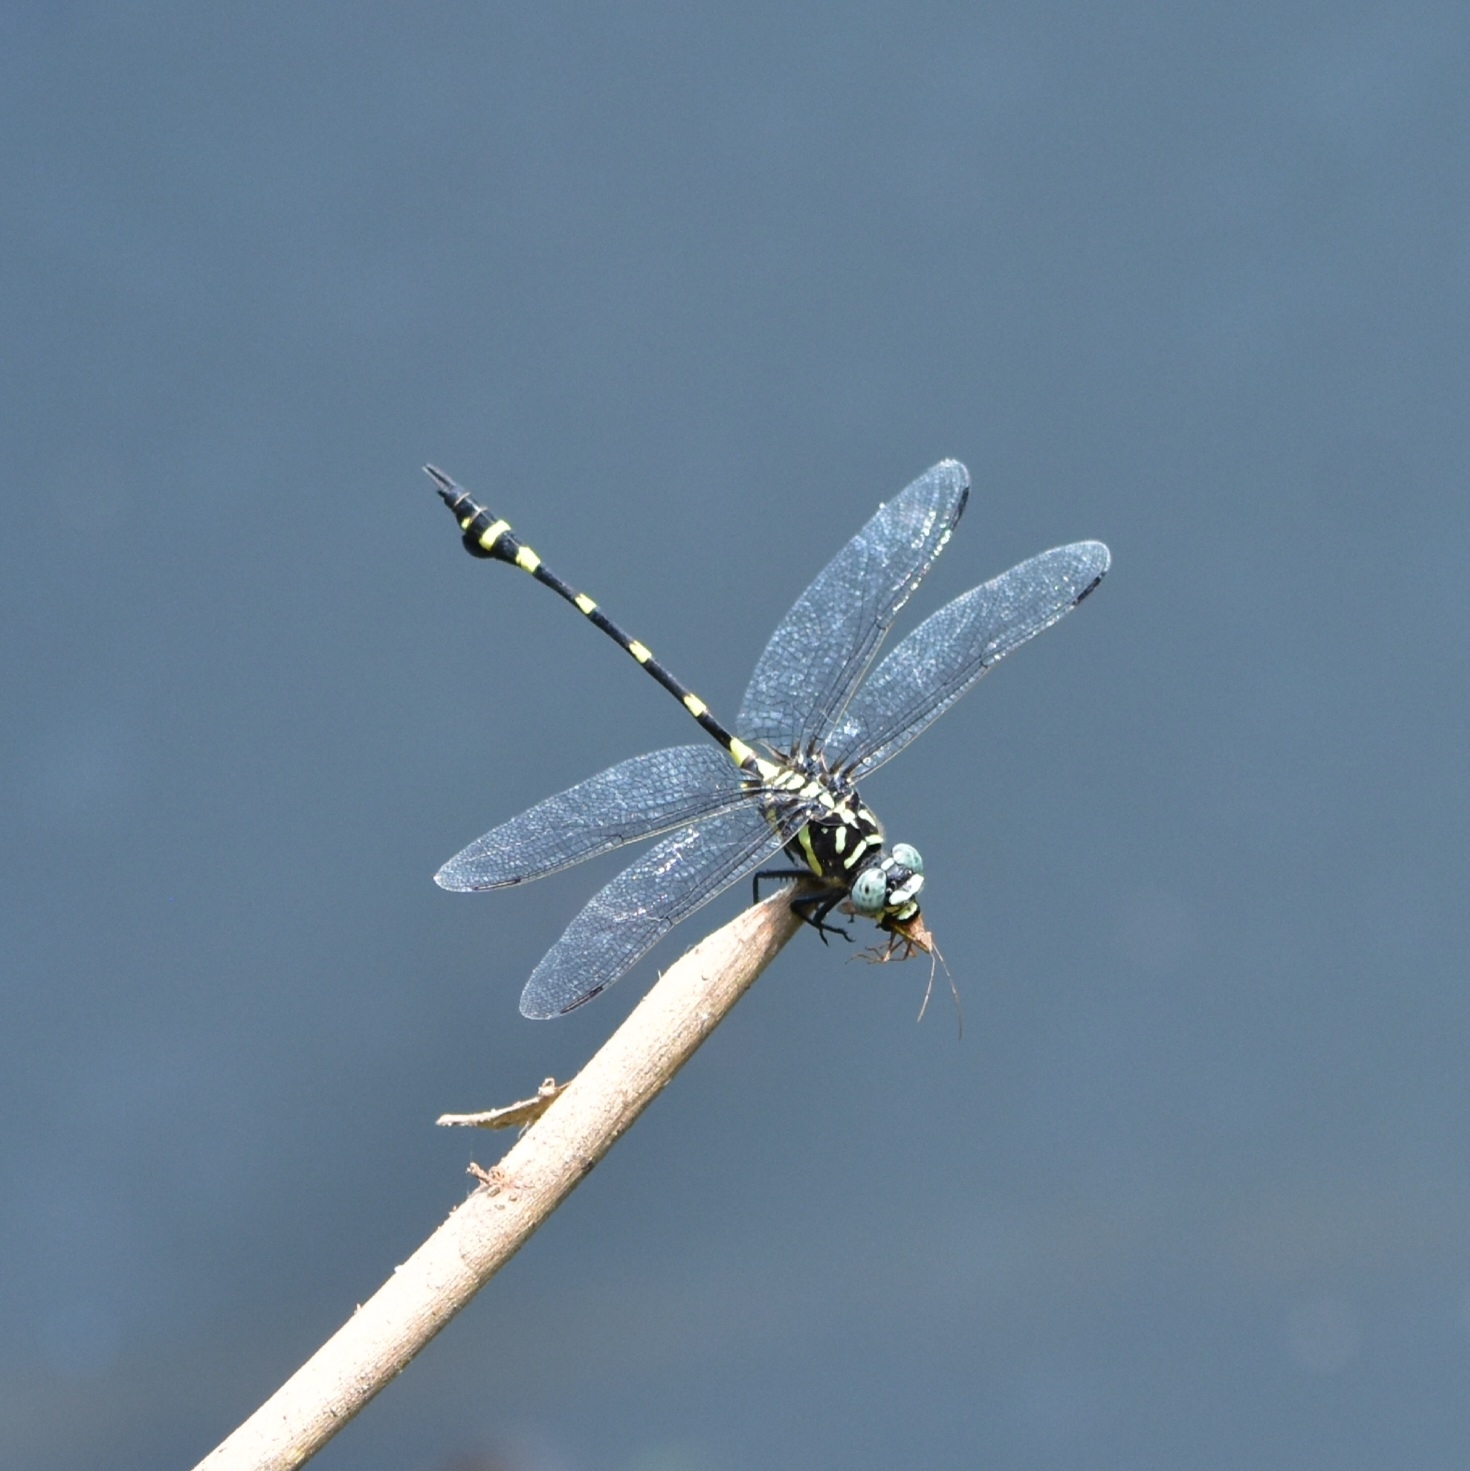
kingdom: Animalia
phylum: Arthropoda
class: Insecta
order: Odonata
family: Gomphidae
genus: Ictinogomphus
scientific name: Ictinogomphus rapax
